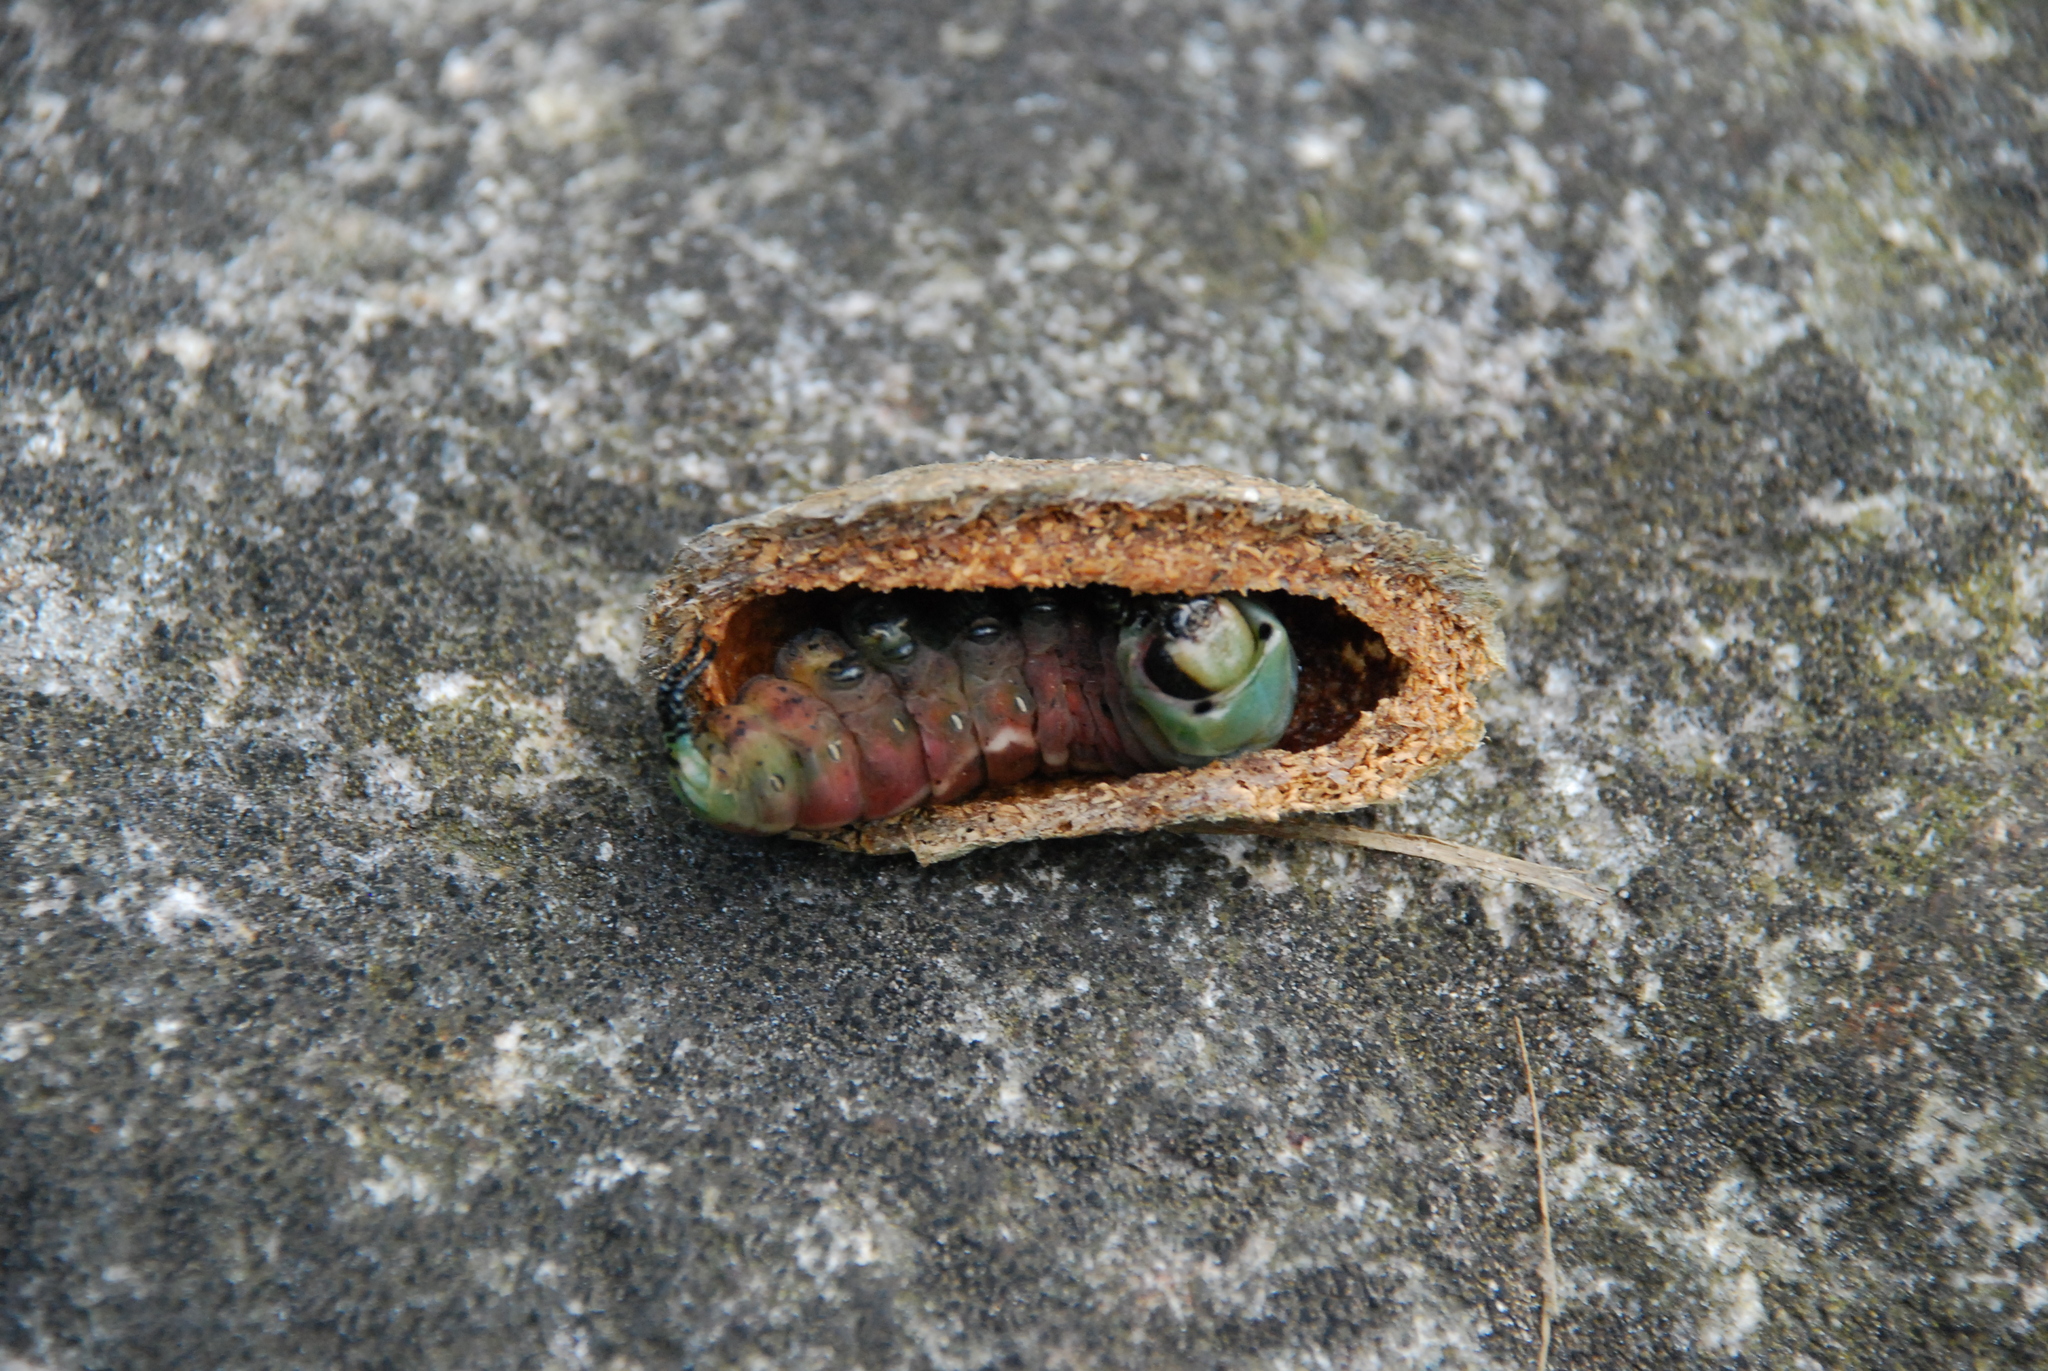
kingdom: Animalia
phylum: Arthropoda
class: Insecta
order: Lepidoptera
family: Notodontidae
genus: Cerura
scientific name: Cerura vinula
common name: Puss moth
